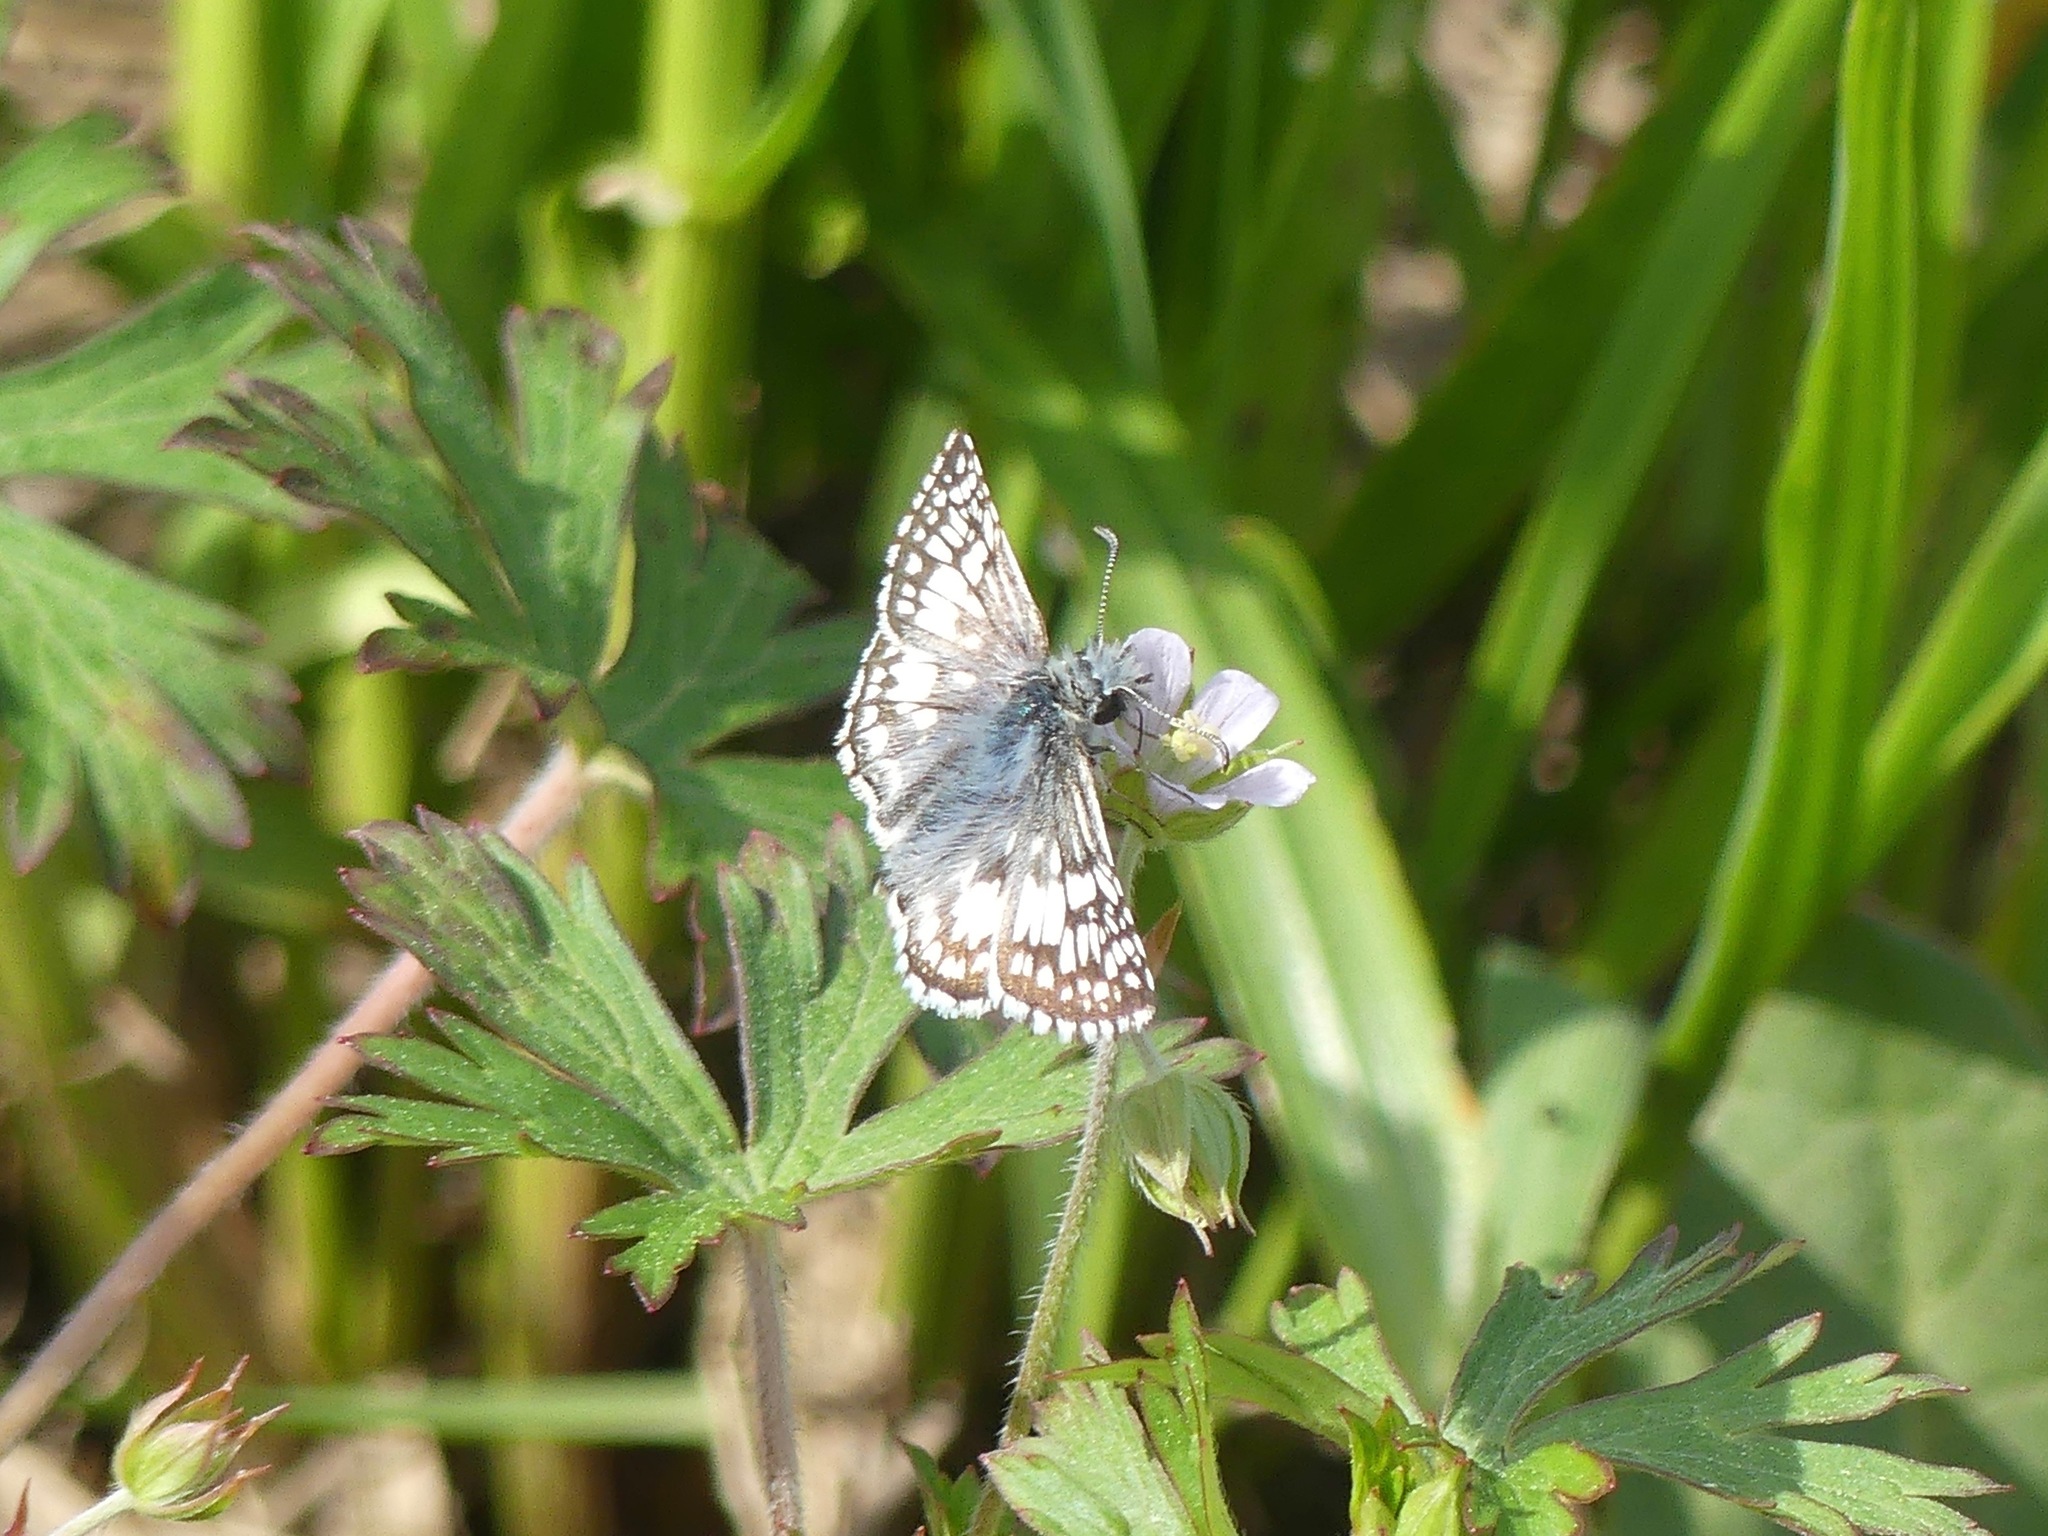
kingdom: Animalia
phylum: Arthropoda
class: Insecta
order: Lepidoptera
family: Hesperiidae
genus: Burnsius
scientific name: Burnsius
